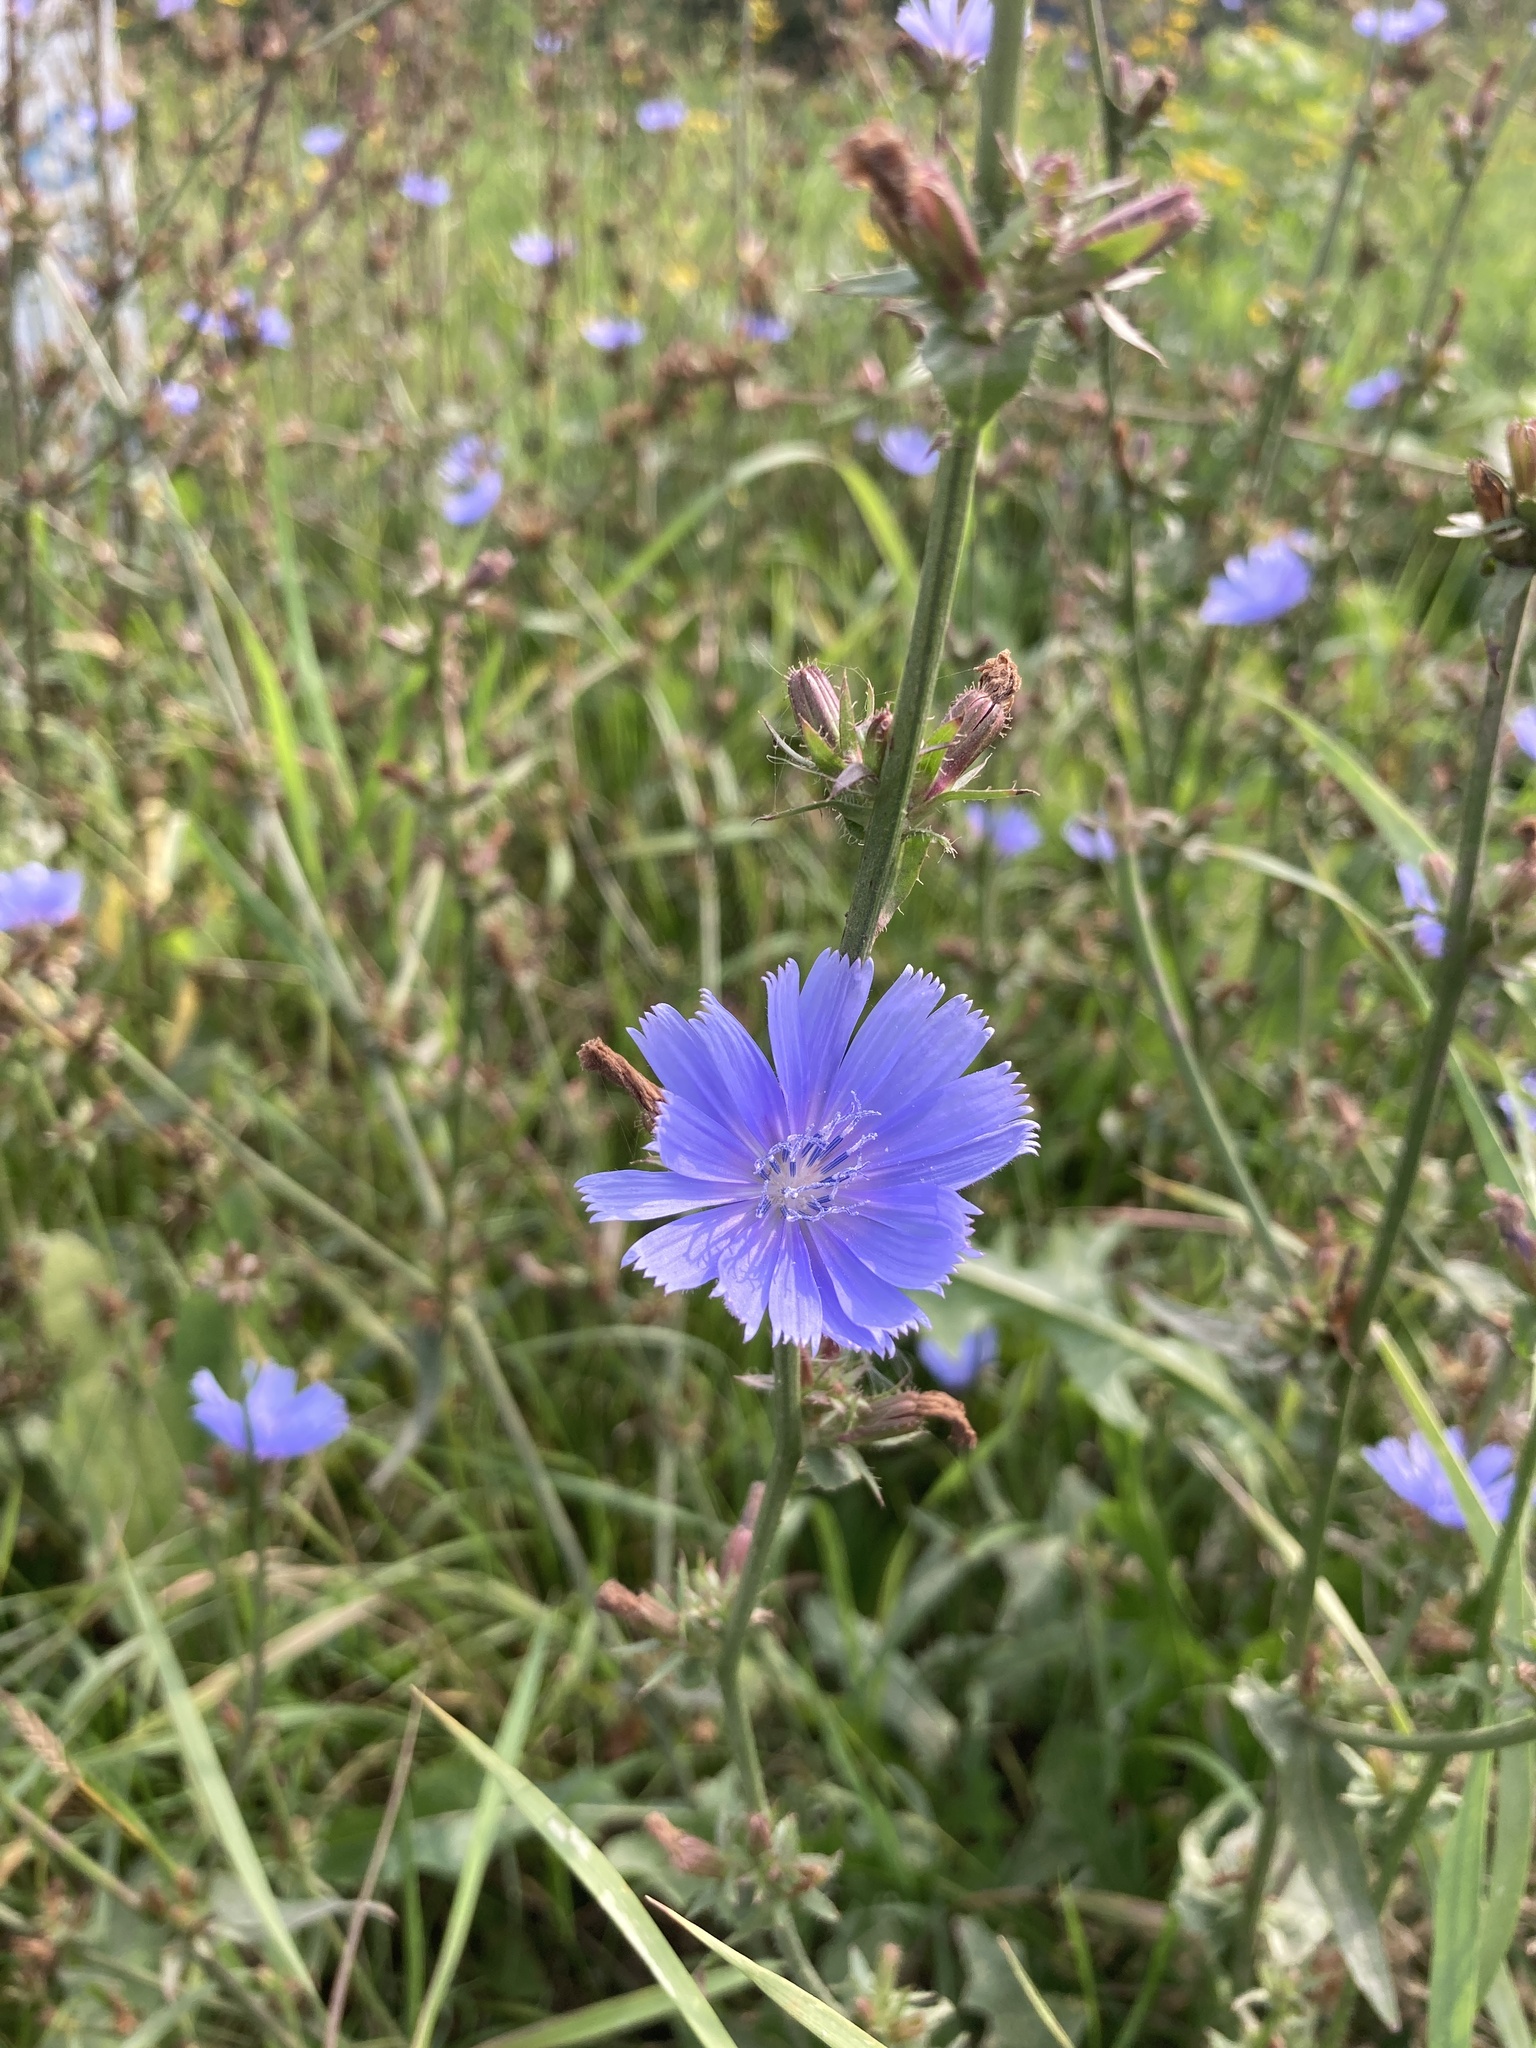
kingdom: Plantae
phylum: Tracheophyta
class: Magnoliopsida
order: Asterales
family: Asteraceae
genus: Cichorium
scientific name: Cichorium intybus
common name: Chicory
